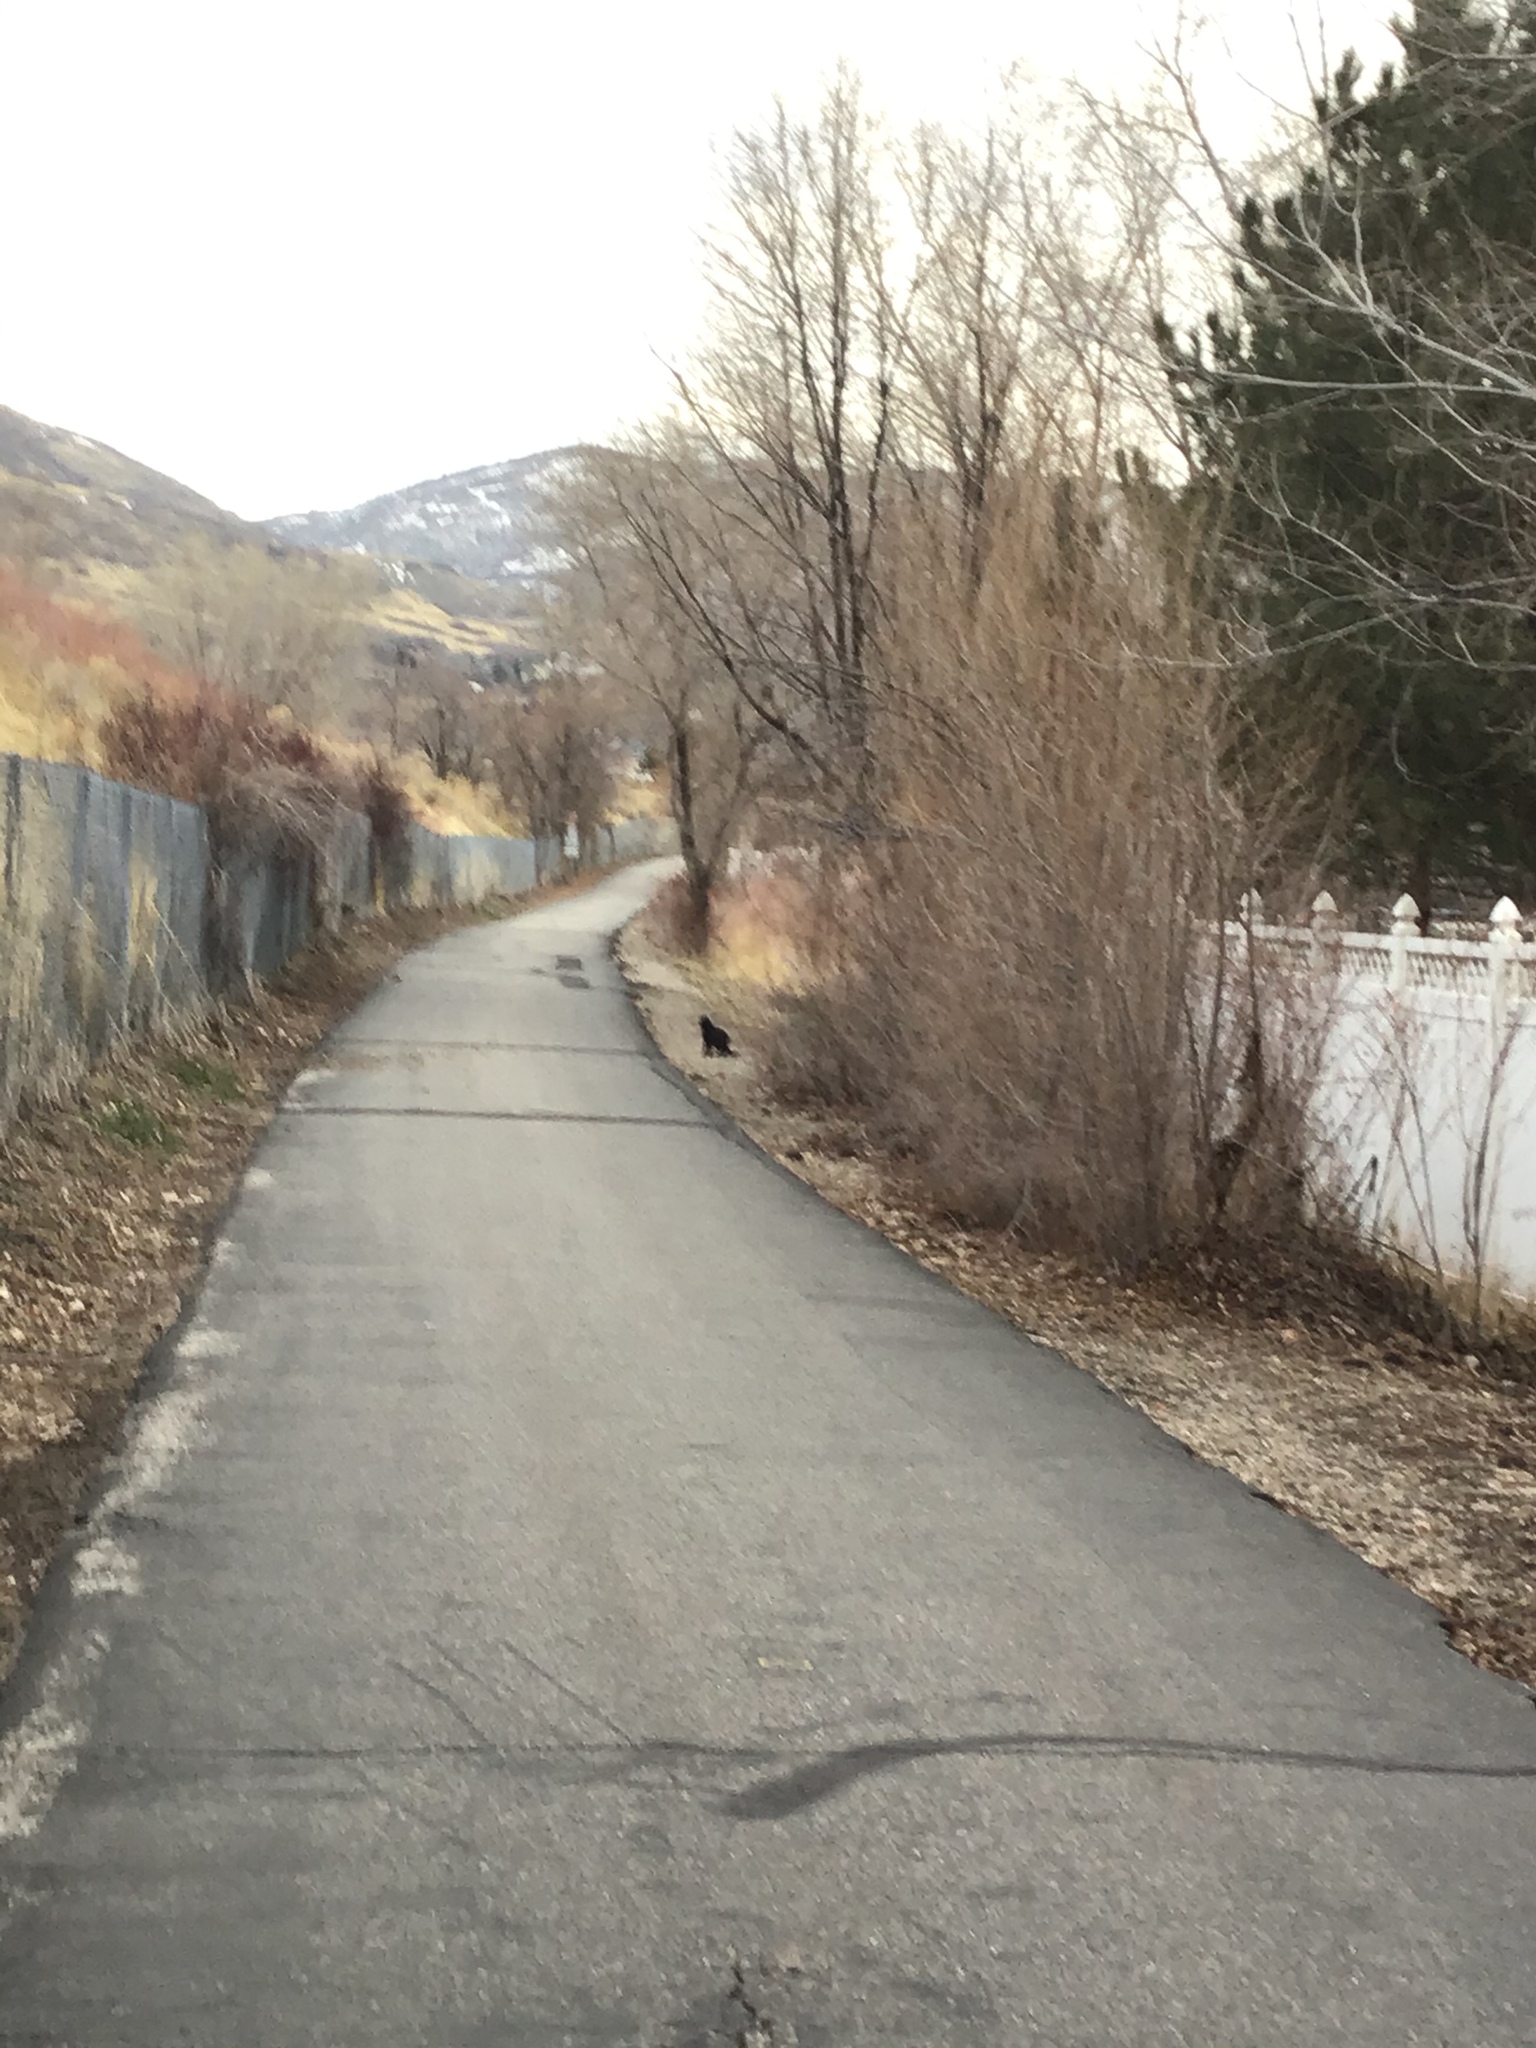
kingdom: Animalia
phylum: Chordata
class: Mammalia
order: Carnivora
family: Felidae
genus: Felis
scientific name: Felis catus
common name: Domestic cat
